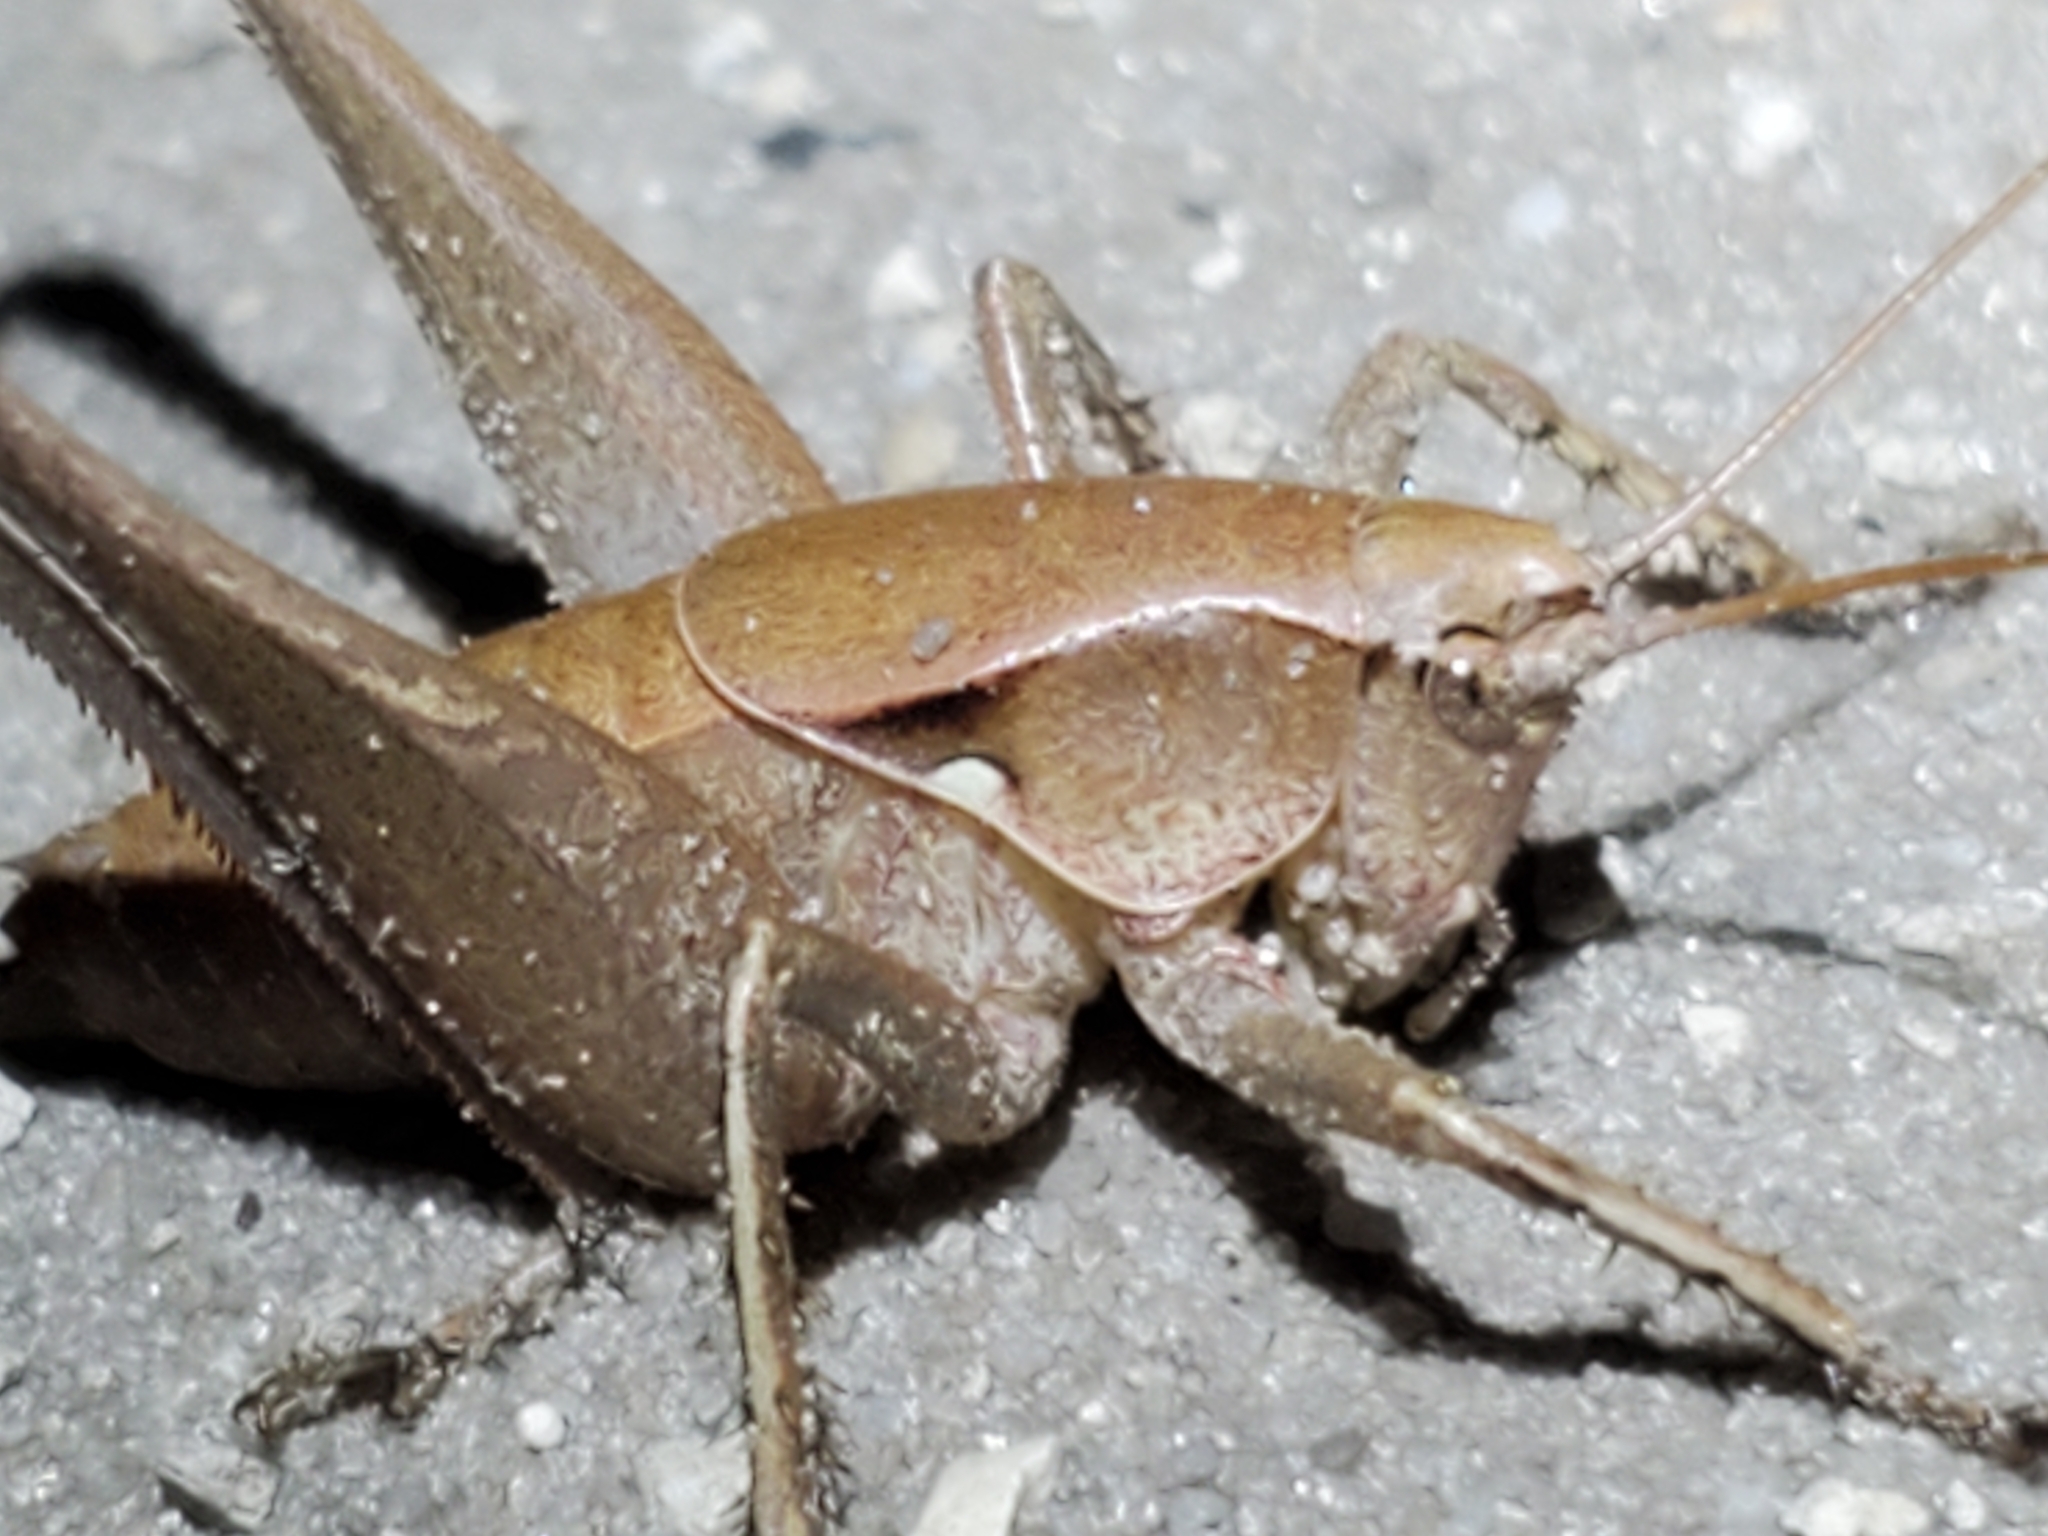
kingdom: Animalia
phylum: Arthropoda
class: Insecta
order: Orthoptera
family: Tettigoniidae
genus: Atlanticus
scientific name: Atlanticus gibbosus
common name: Robust shield-bearer
